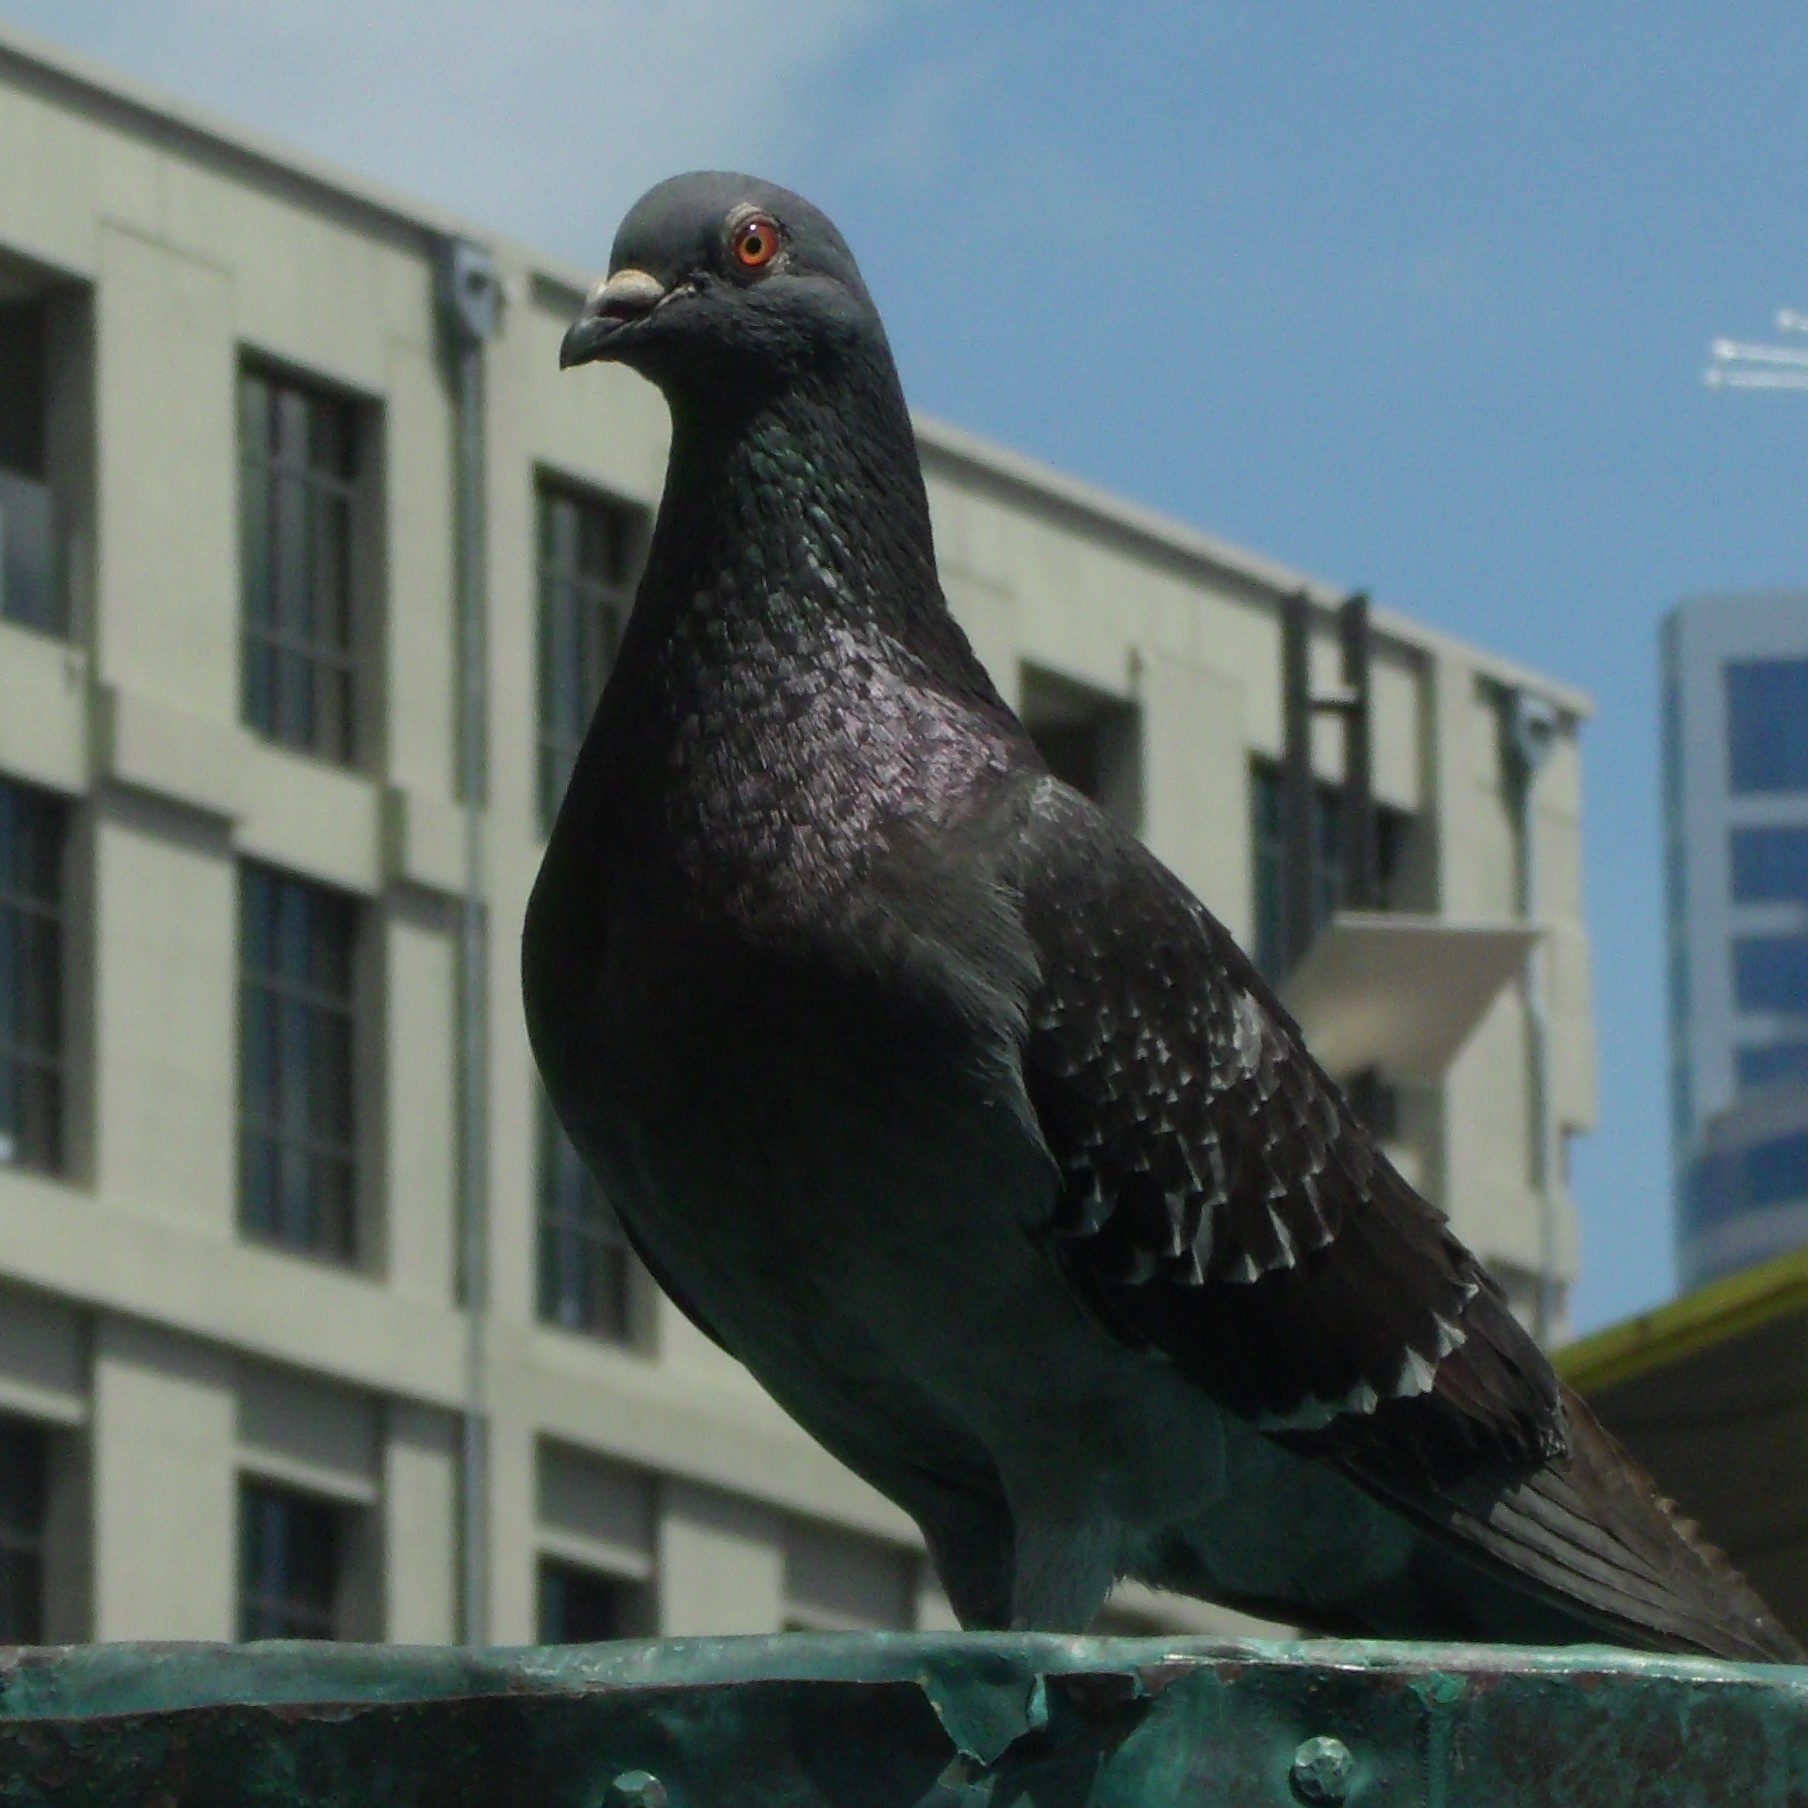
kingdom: Animalia
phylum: Chordata
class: Aves
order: Columbiformes
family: Columbidae
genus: Columba
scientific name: Columba livia
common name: Rock pigeon
